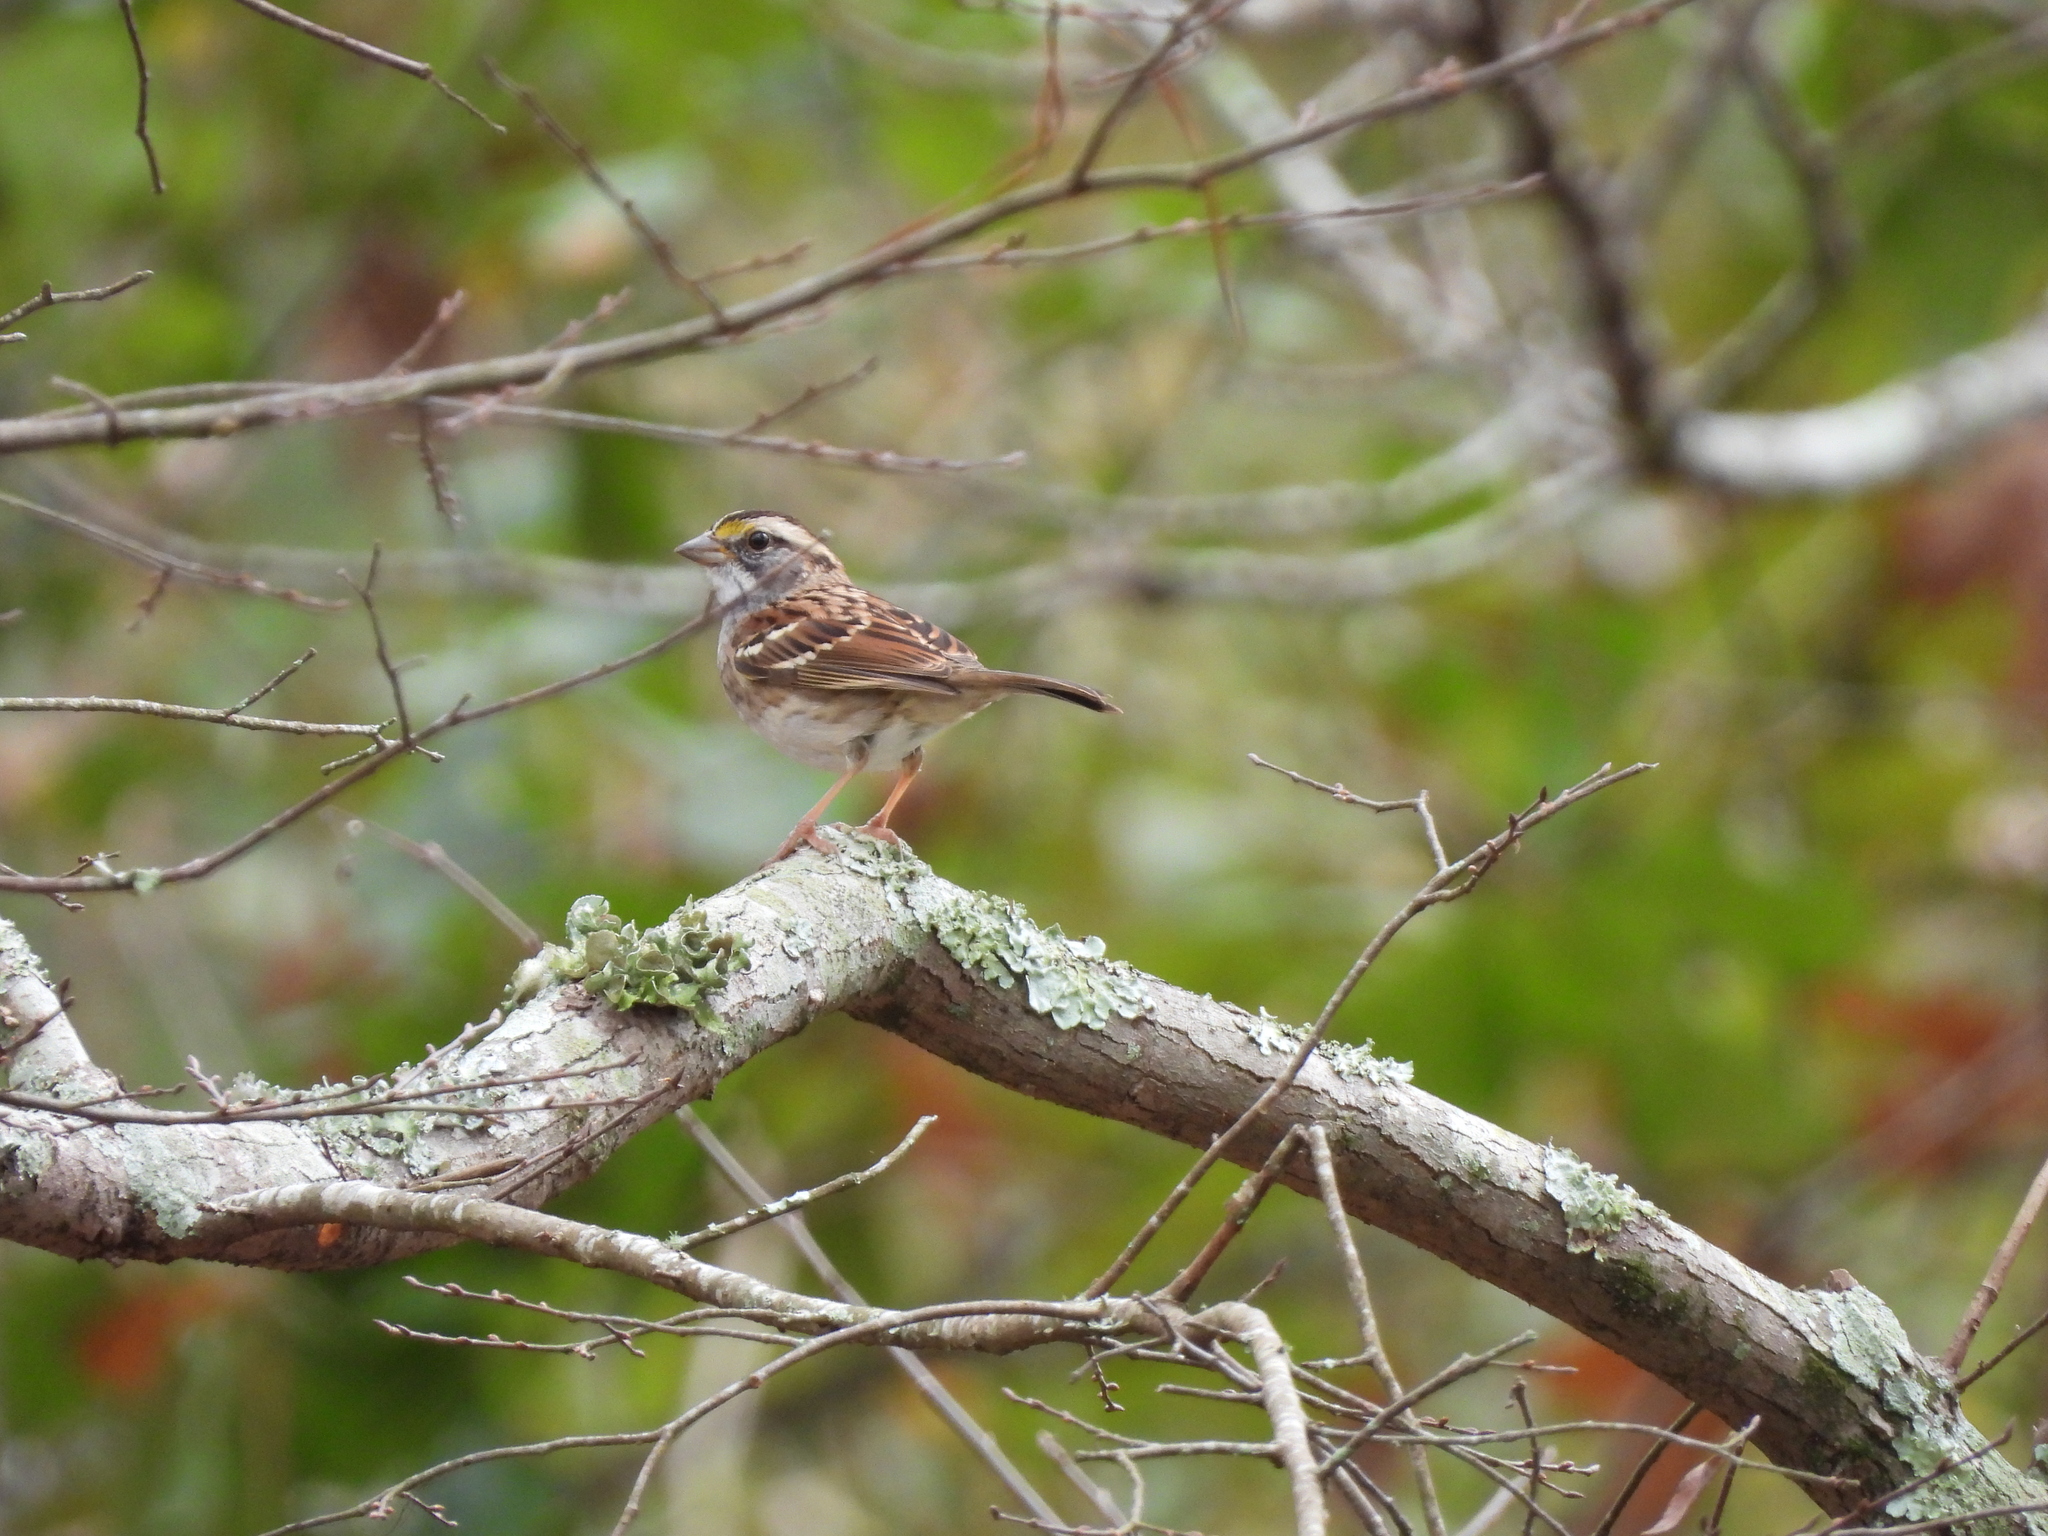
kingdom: Animalia
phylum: Chordata
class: Aves
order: Passeriformes
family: Passerellidae
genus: Zonotrichia
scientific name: Zonotrichia albicollis
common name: White-throated sparrow
